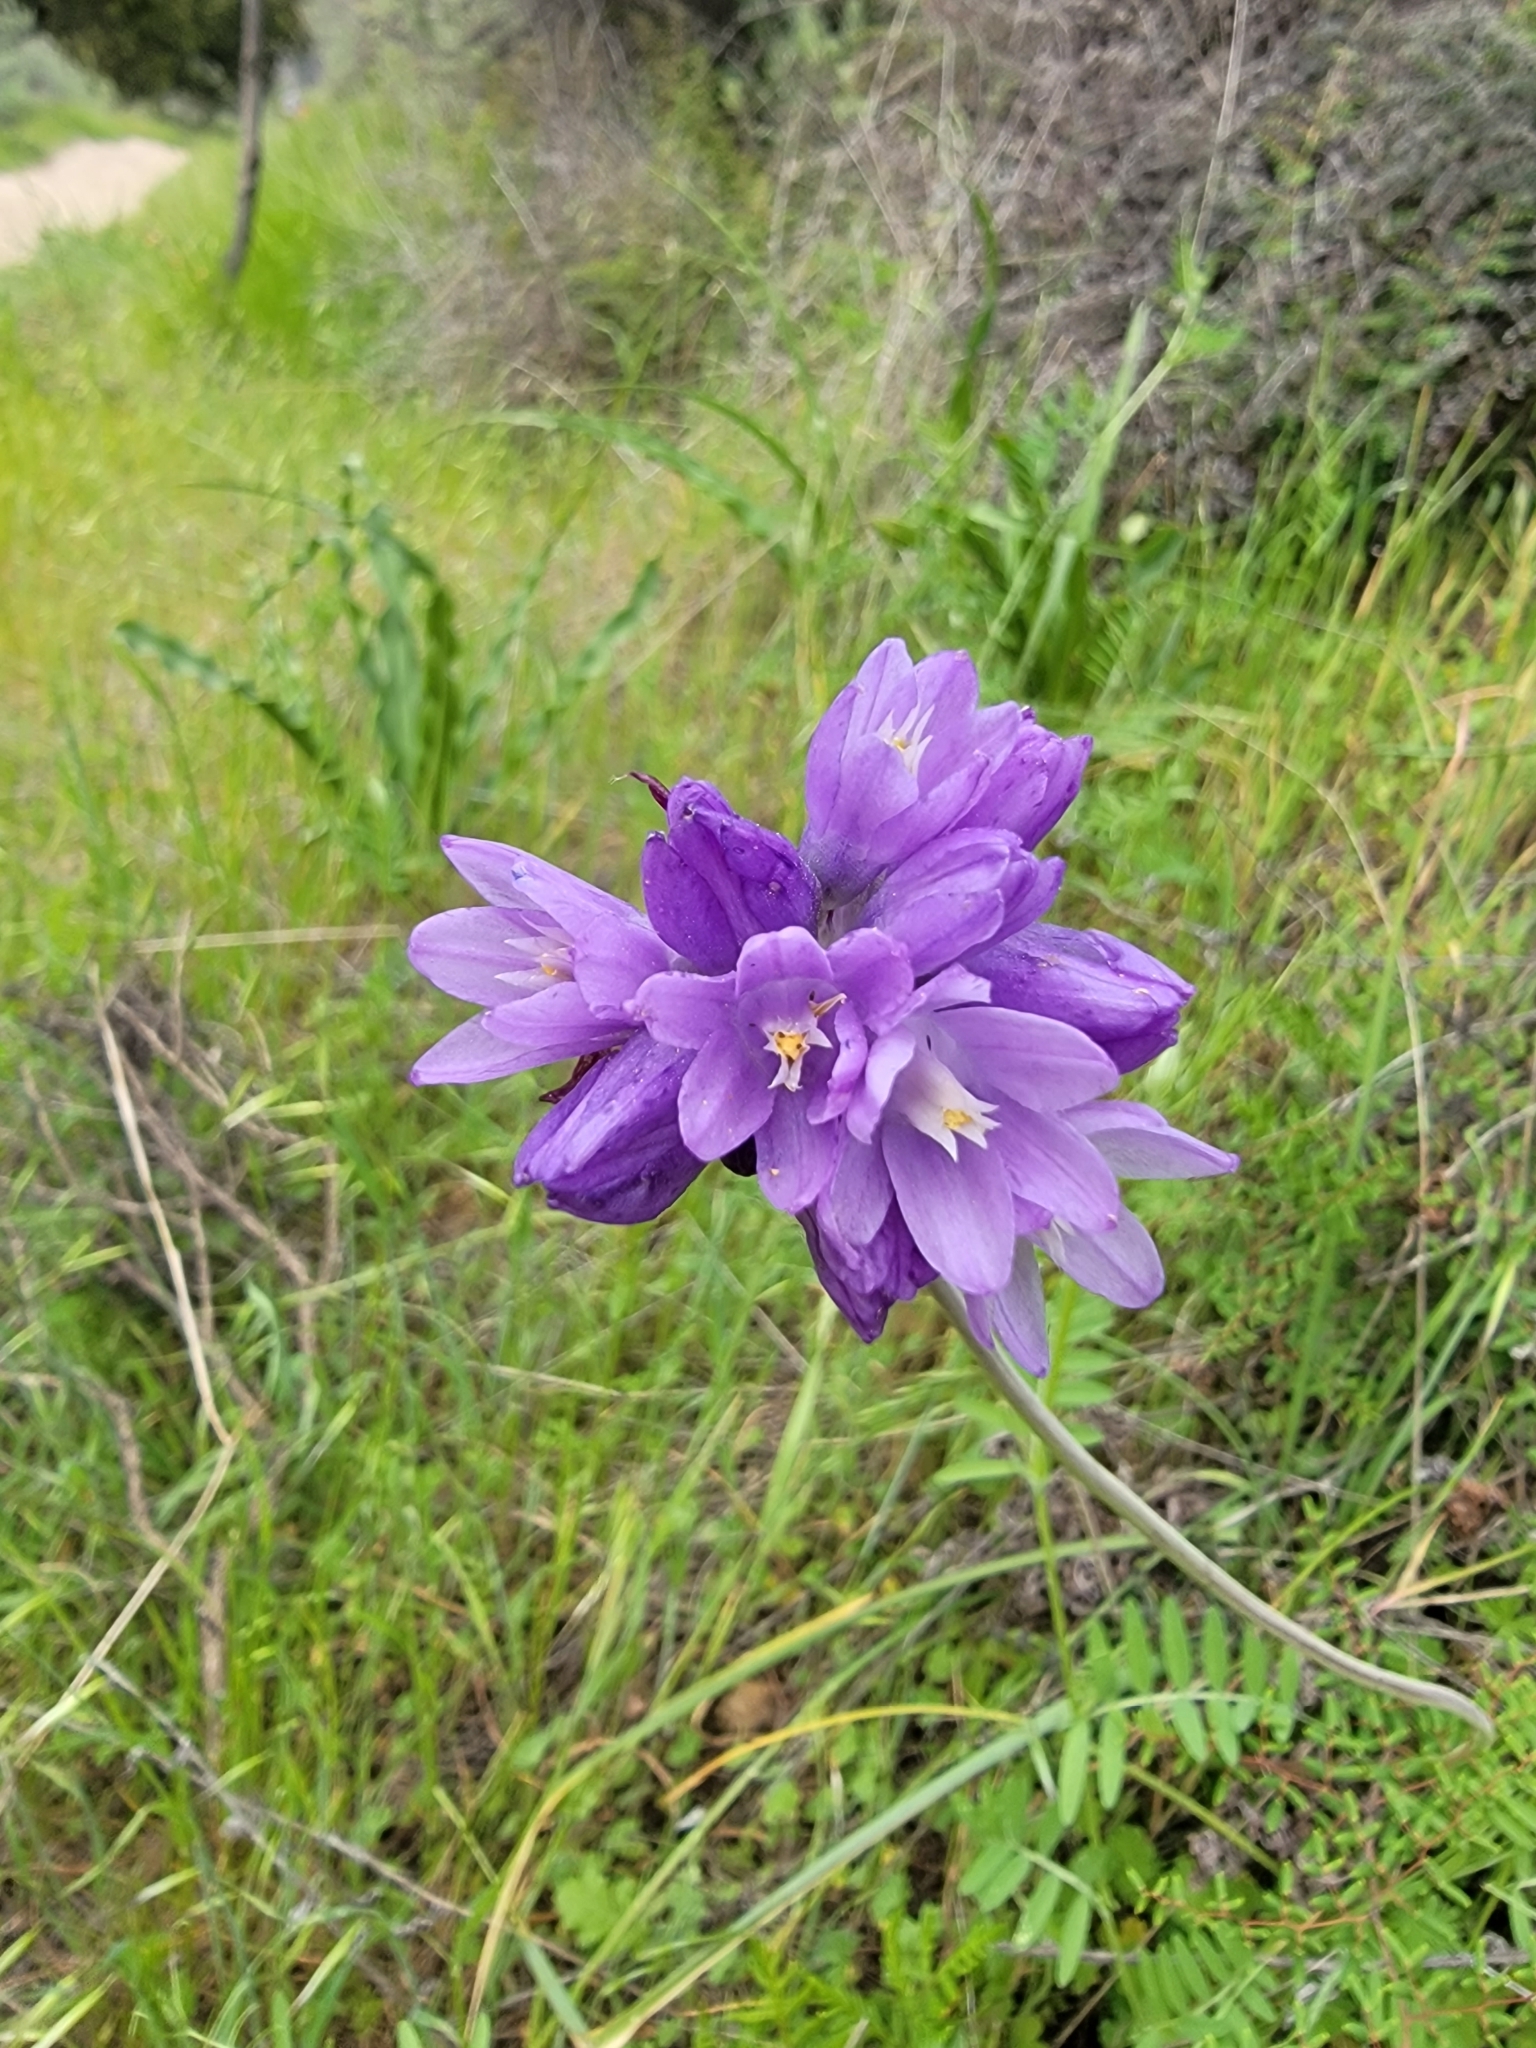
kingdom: Plantae
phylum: Tracheophyta
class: Liliopsida
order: Asparagales
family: Asparagaceae
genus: Dipterostemon
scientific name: Dipterostemon capitatus
